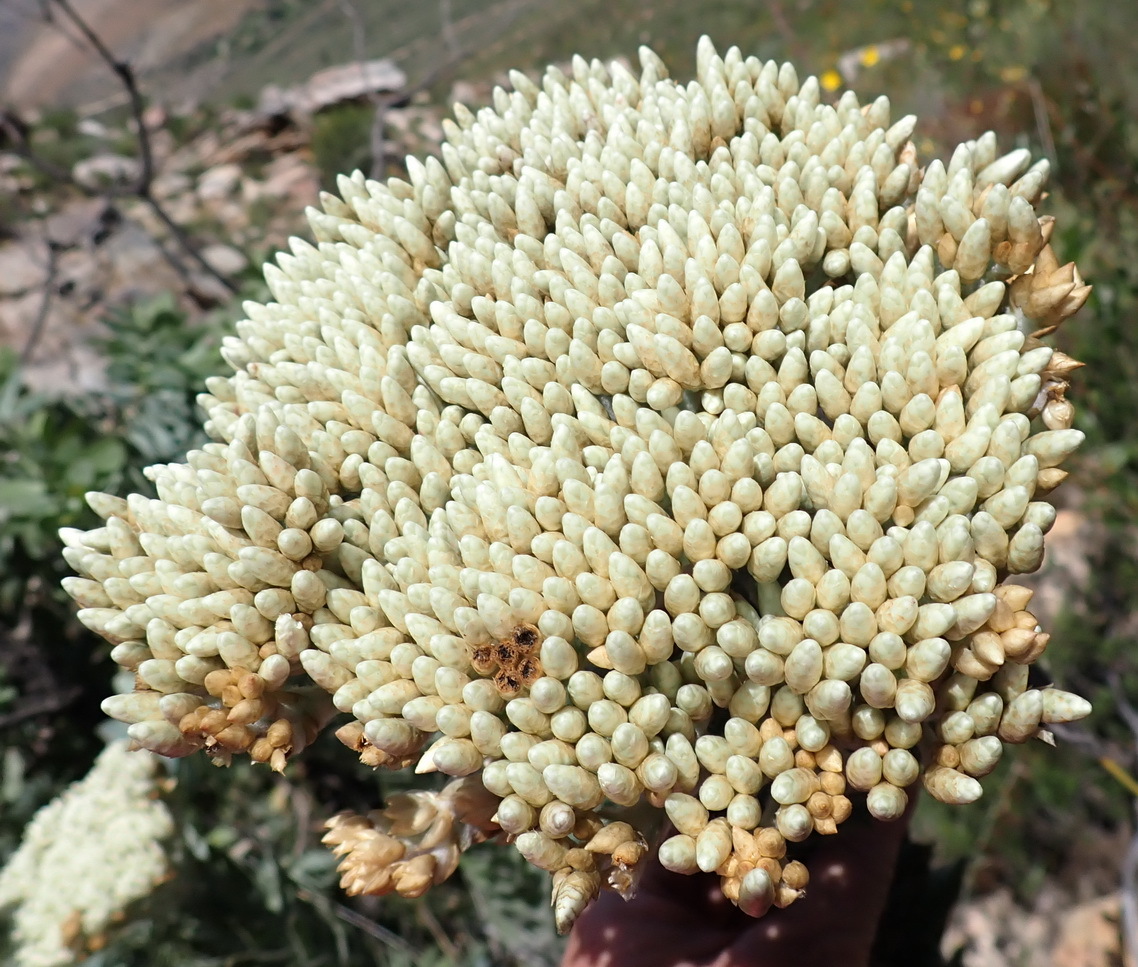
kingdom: Plantae
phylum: Tracheophyta
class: Magnoliopsida
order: Asterales
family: Asteraceae
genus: Syncarpha
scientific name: Syncarpha milleflora
